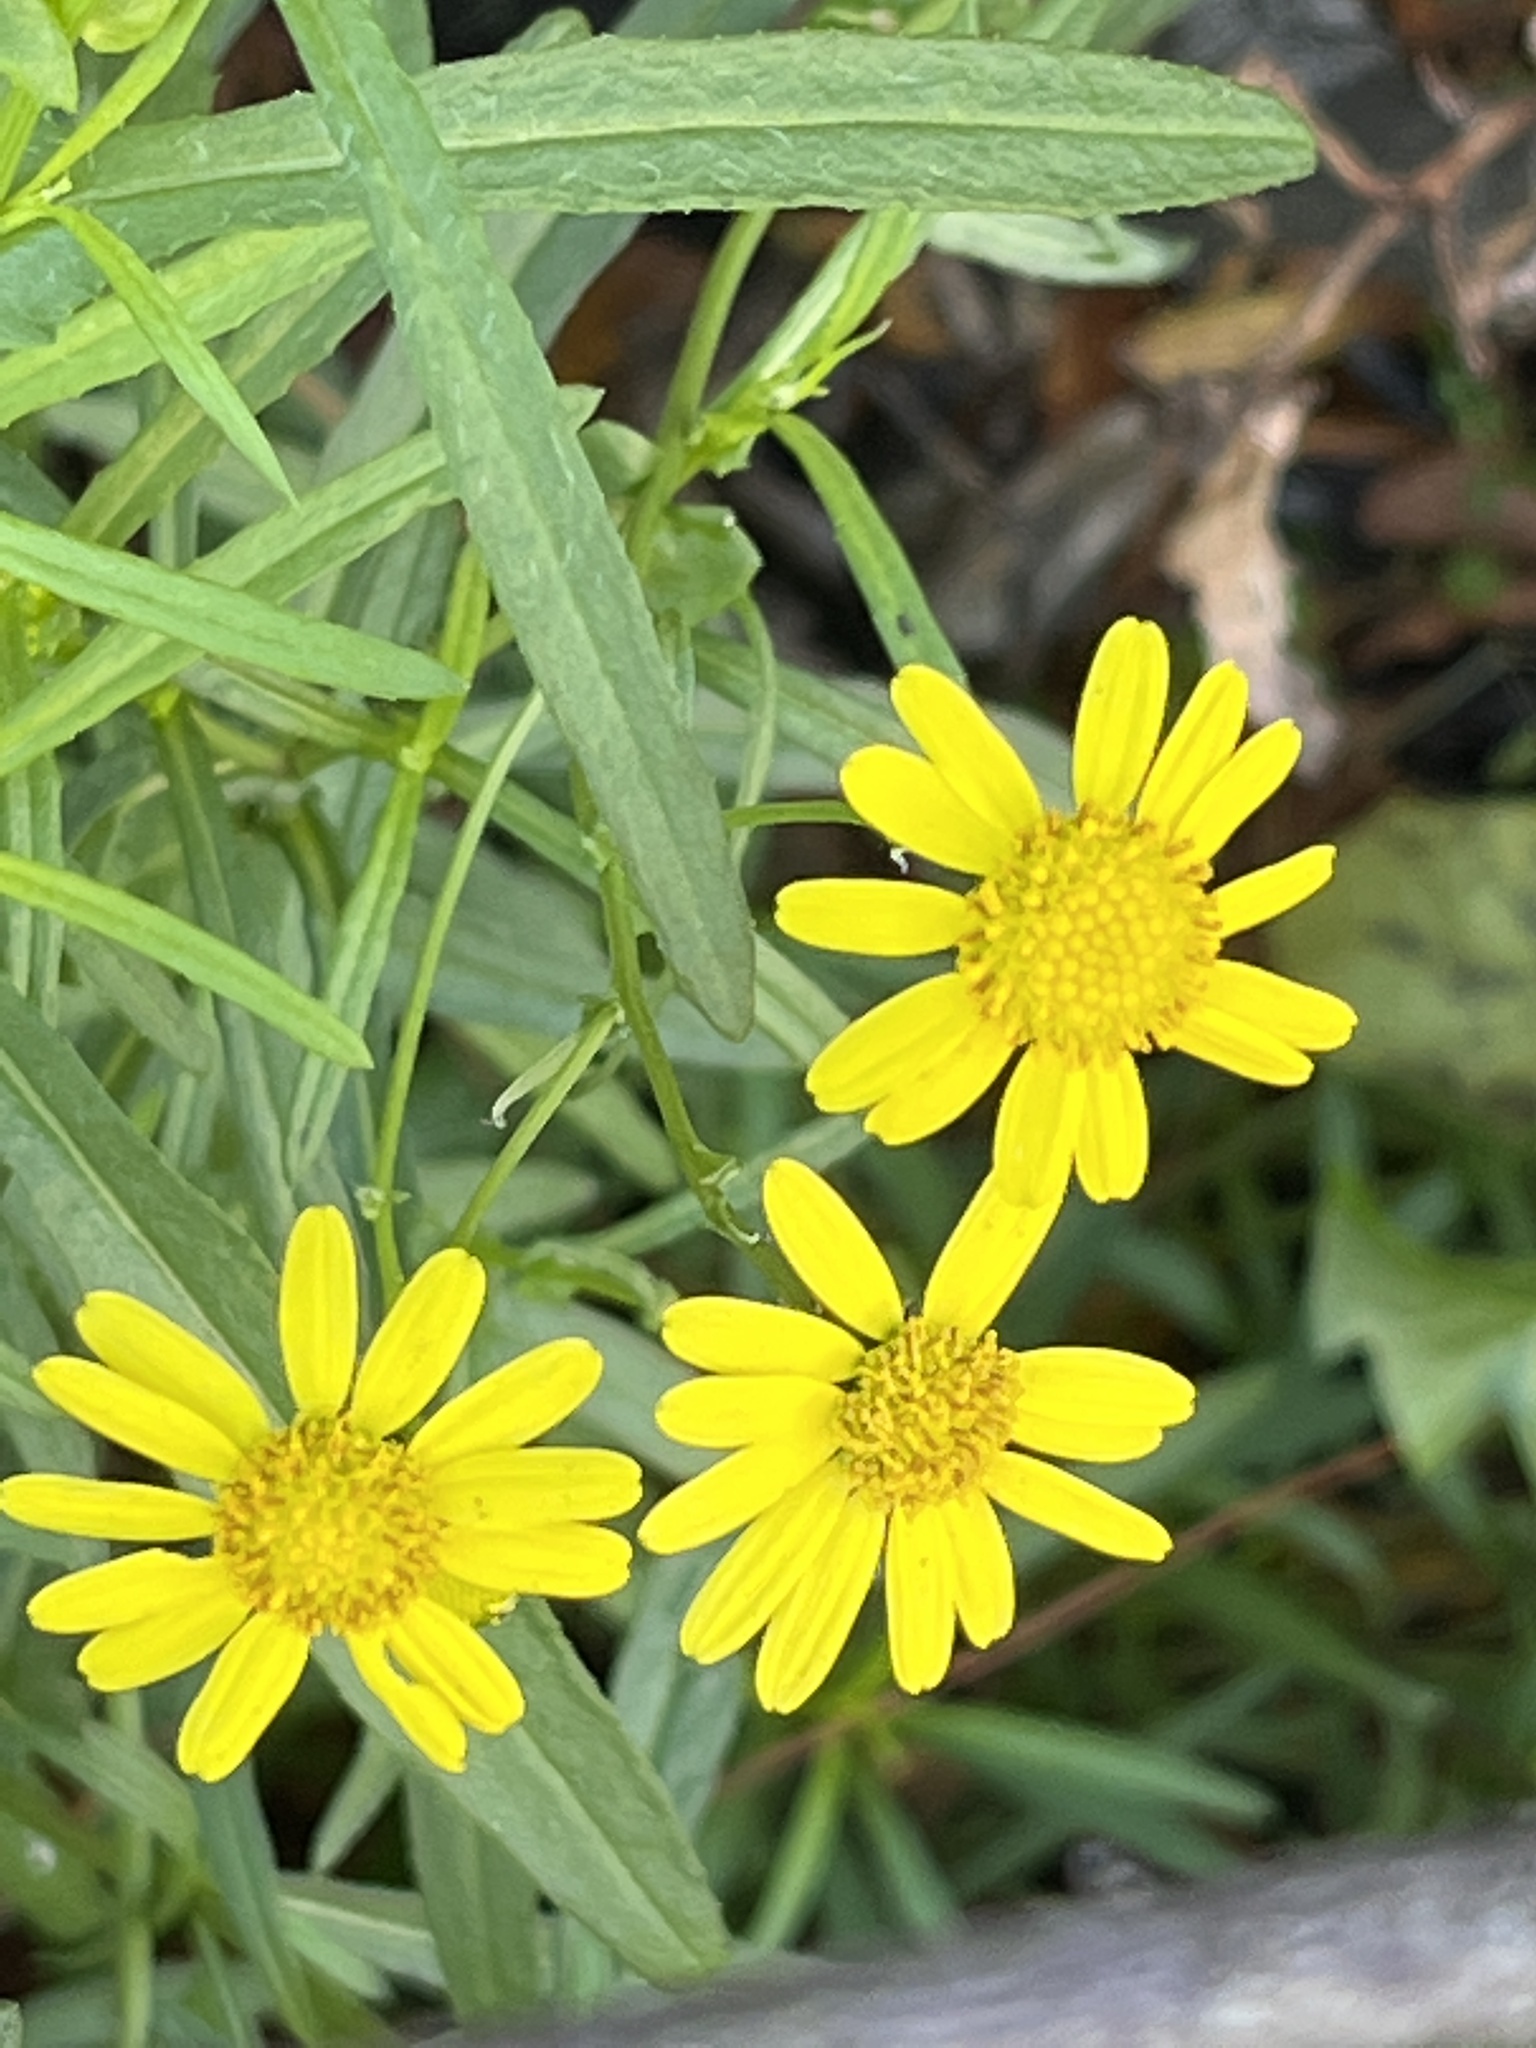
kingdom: Plantae
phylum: Tracheophyta
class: Magnoliopsida
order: Asterales
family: Asteraceae
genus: Senecio
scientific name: Senecio inaequidens
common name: Narrow-leaved ragwort
